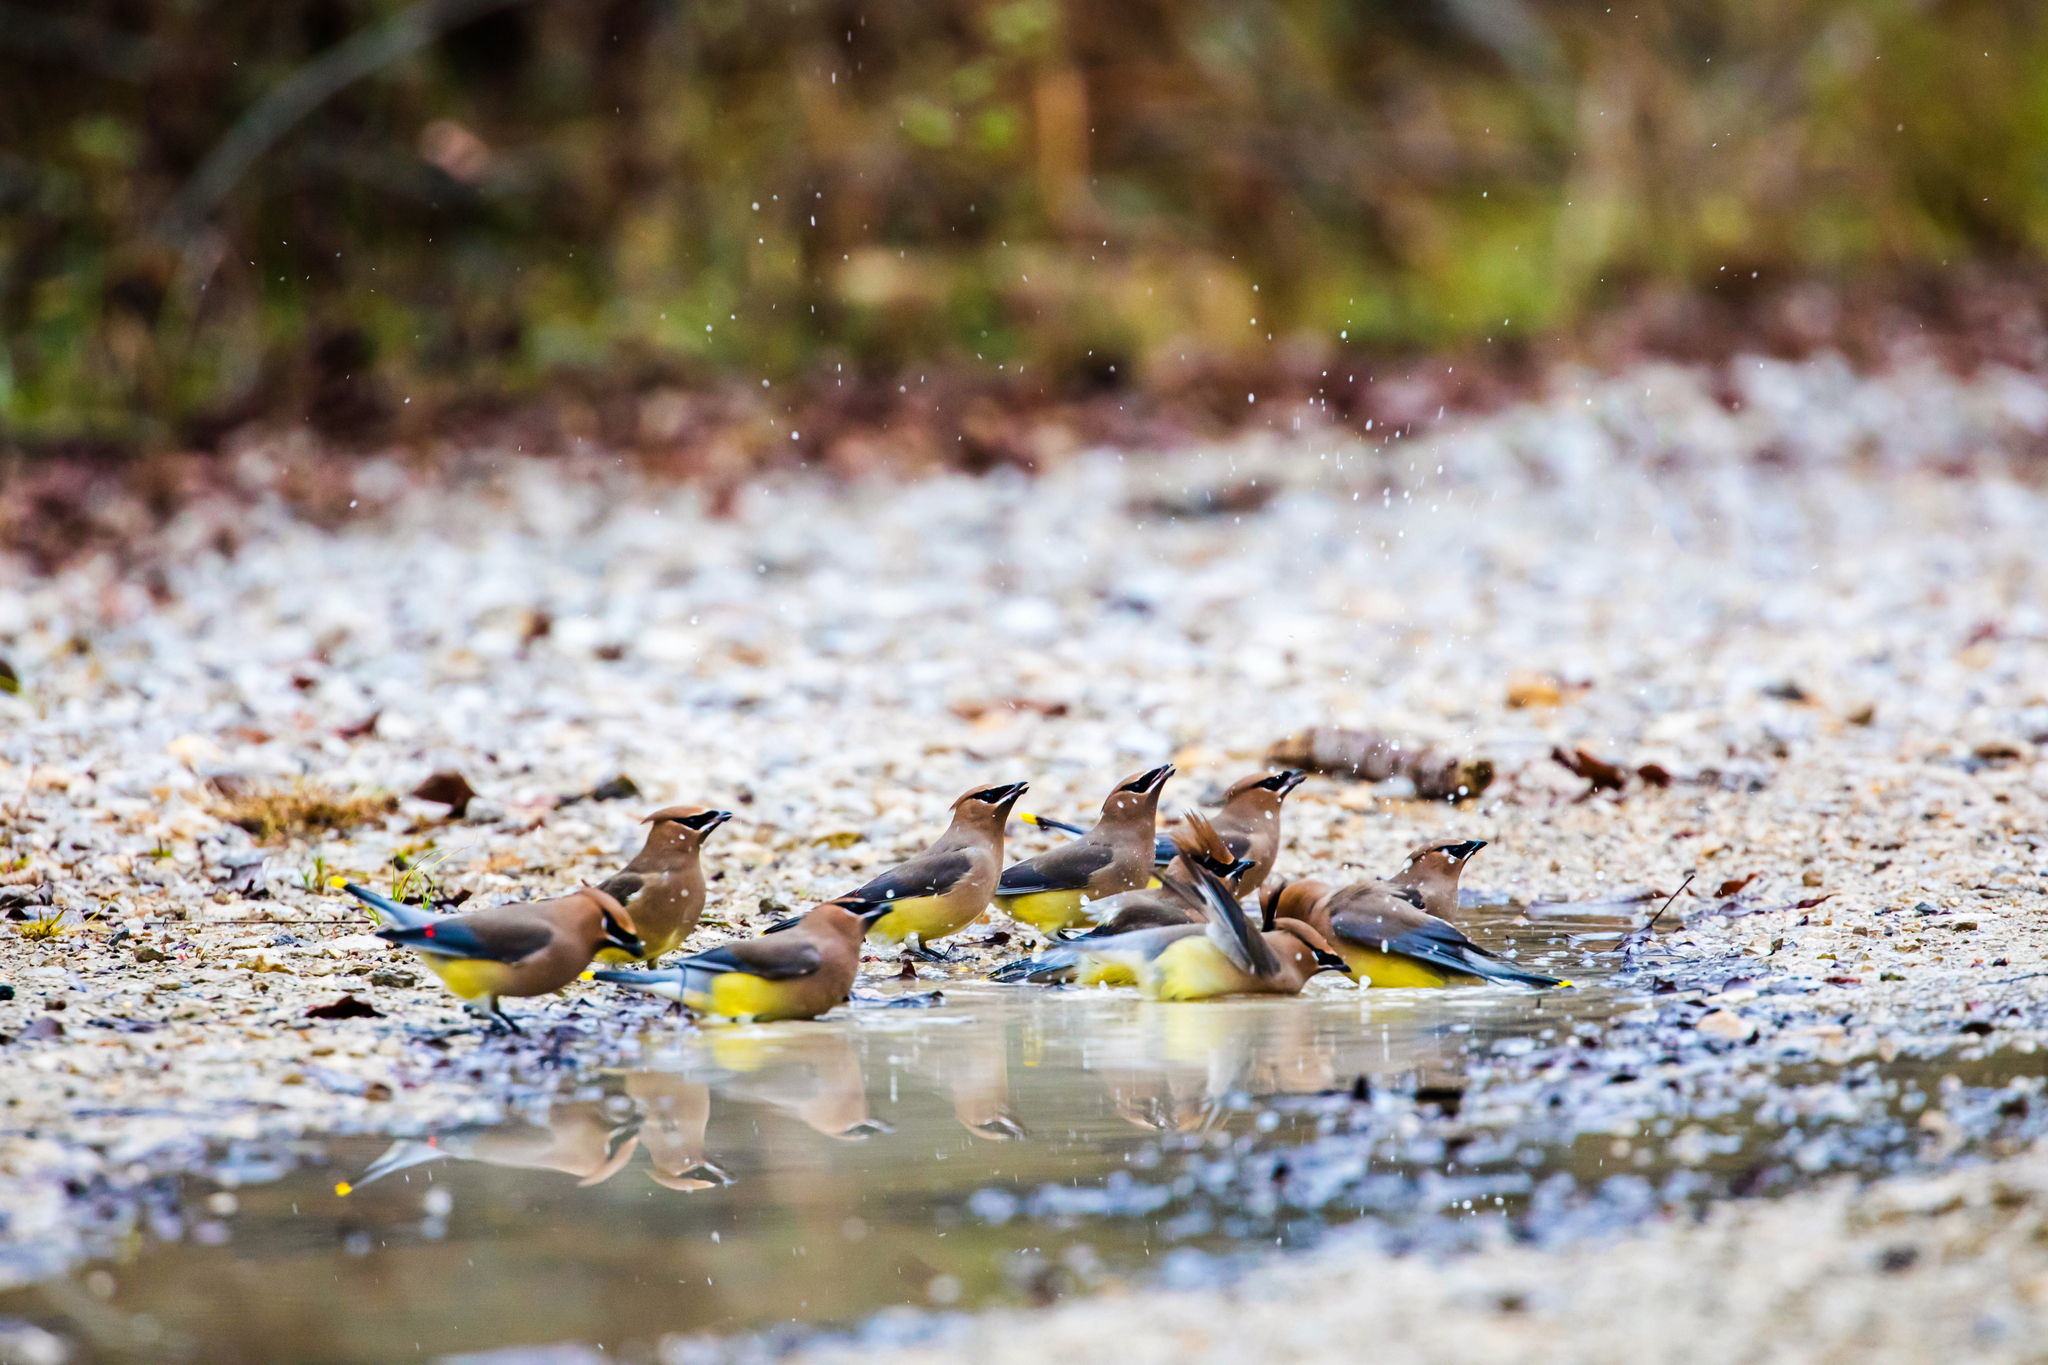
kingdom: Animalia
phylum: Chordata
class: Aves
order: Passeriformes
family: Bombycillidae
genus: Bombycilla
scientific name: Bombycilla cedrorum
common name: Cedar waxwing
